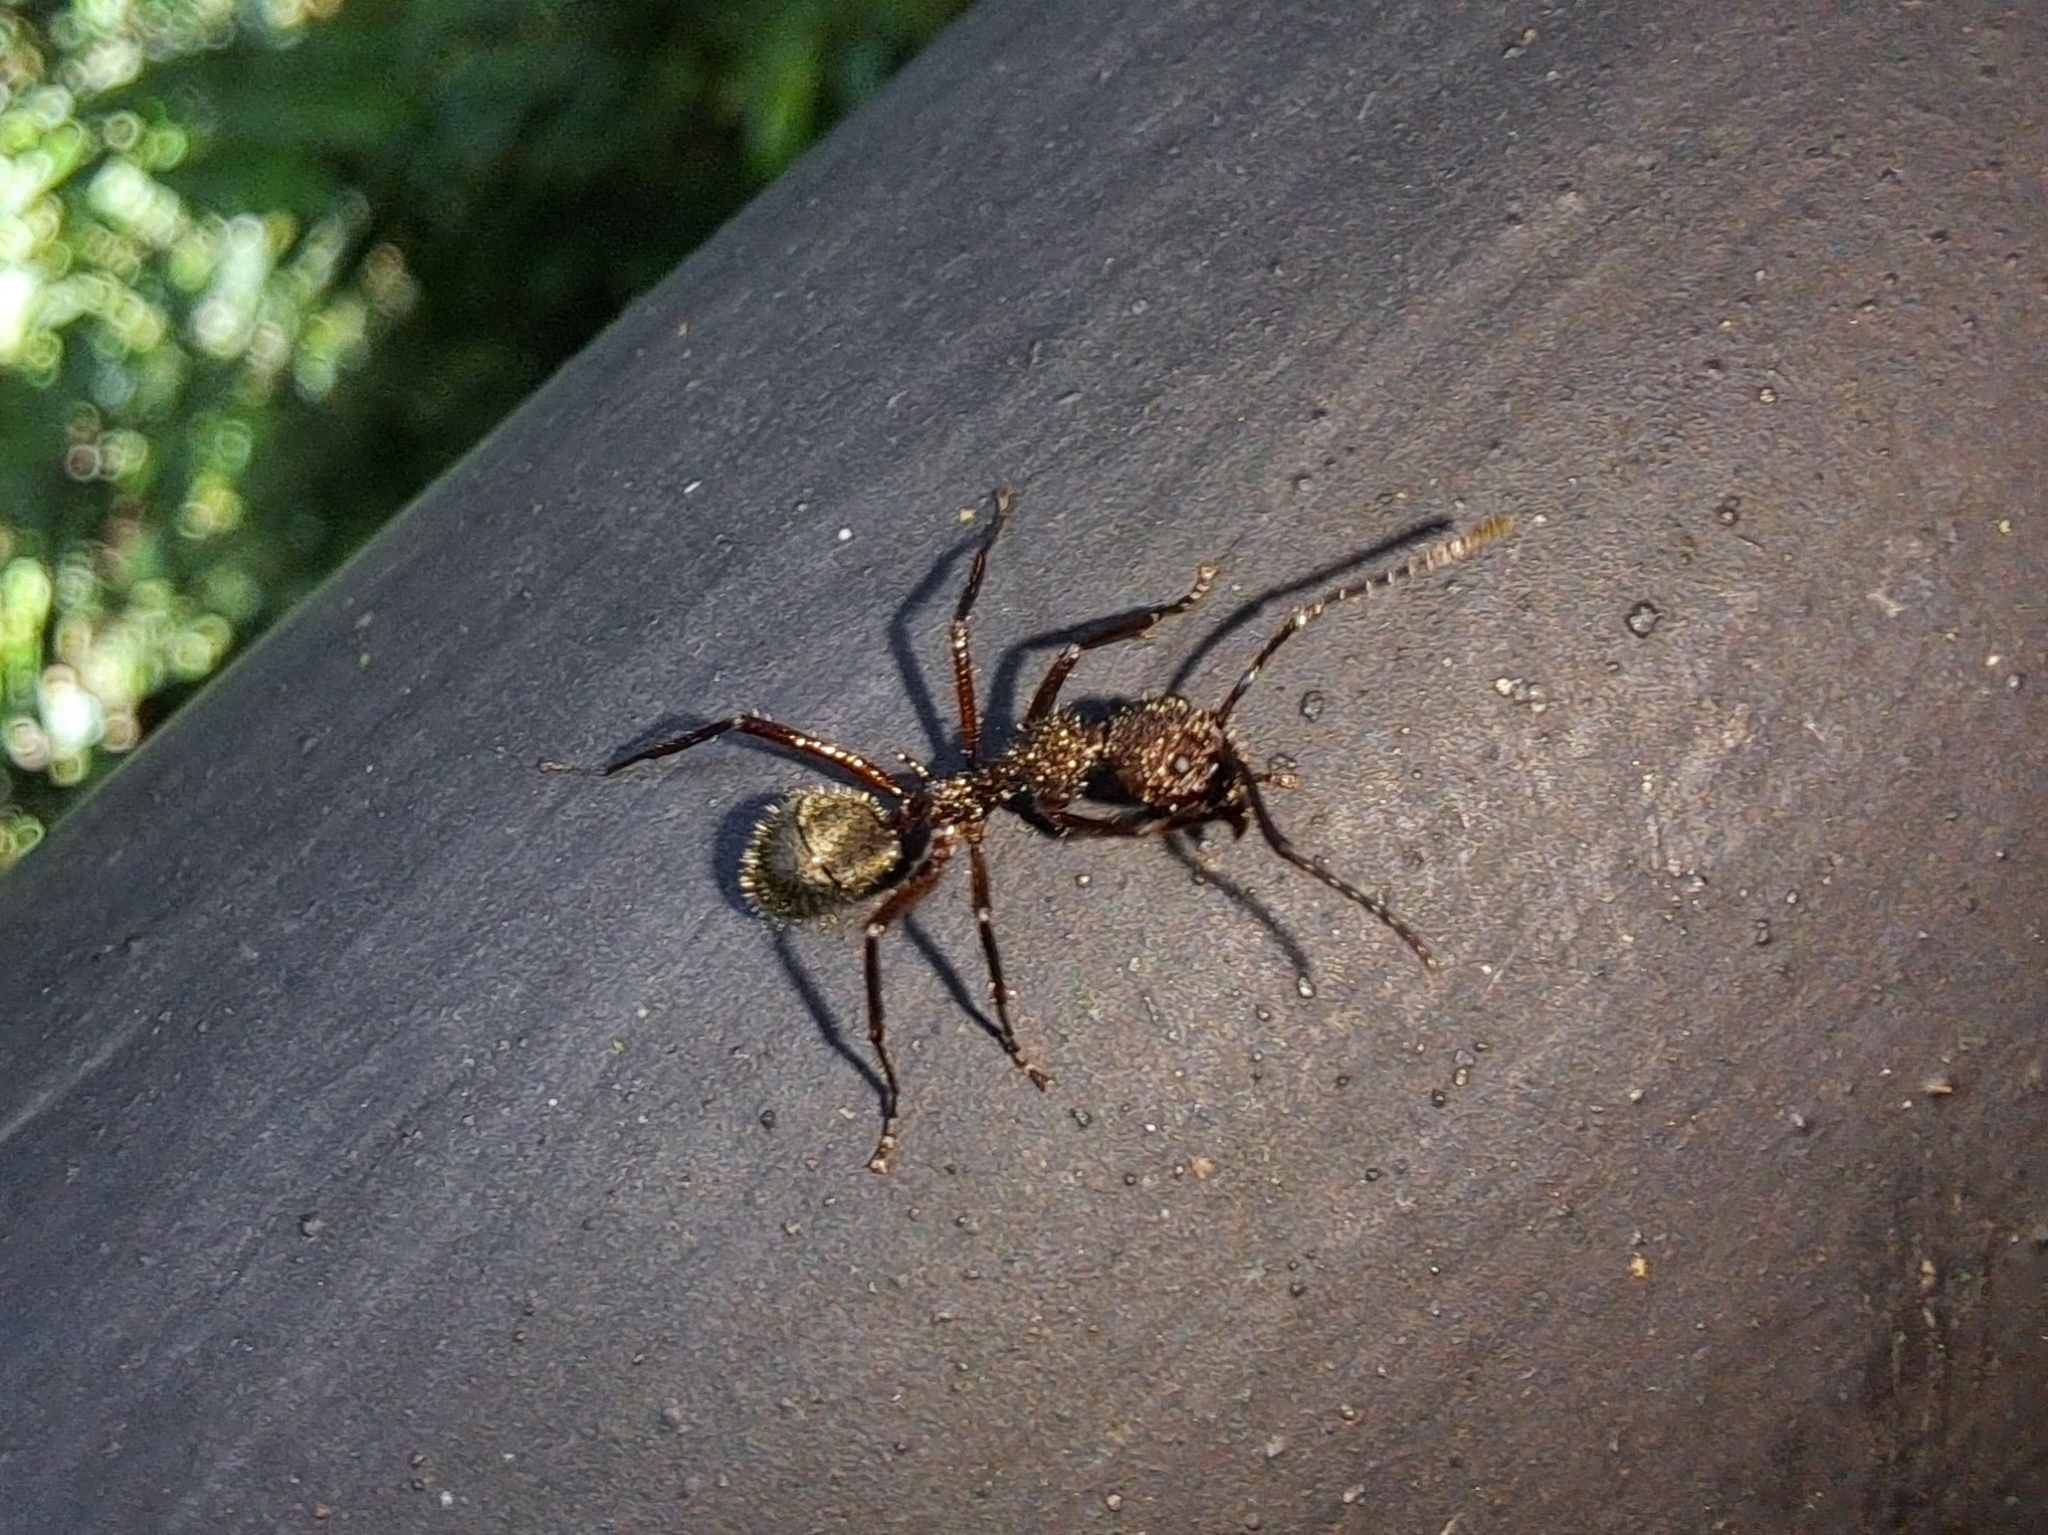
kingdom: Animalia
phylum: Arthropoda
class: Insecta
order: Hymenoptera
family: Formicidae
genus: Dolichoderus
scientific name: Dolichoderus decollatus
